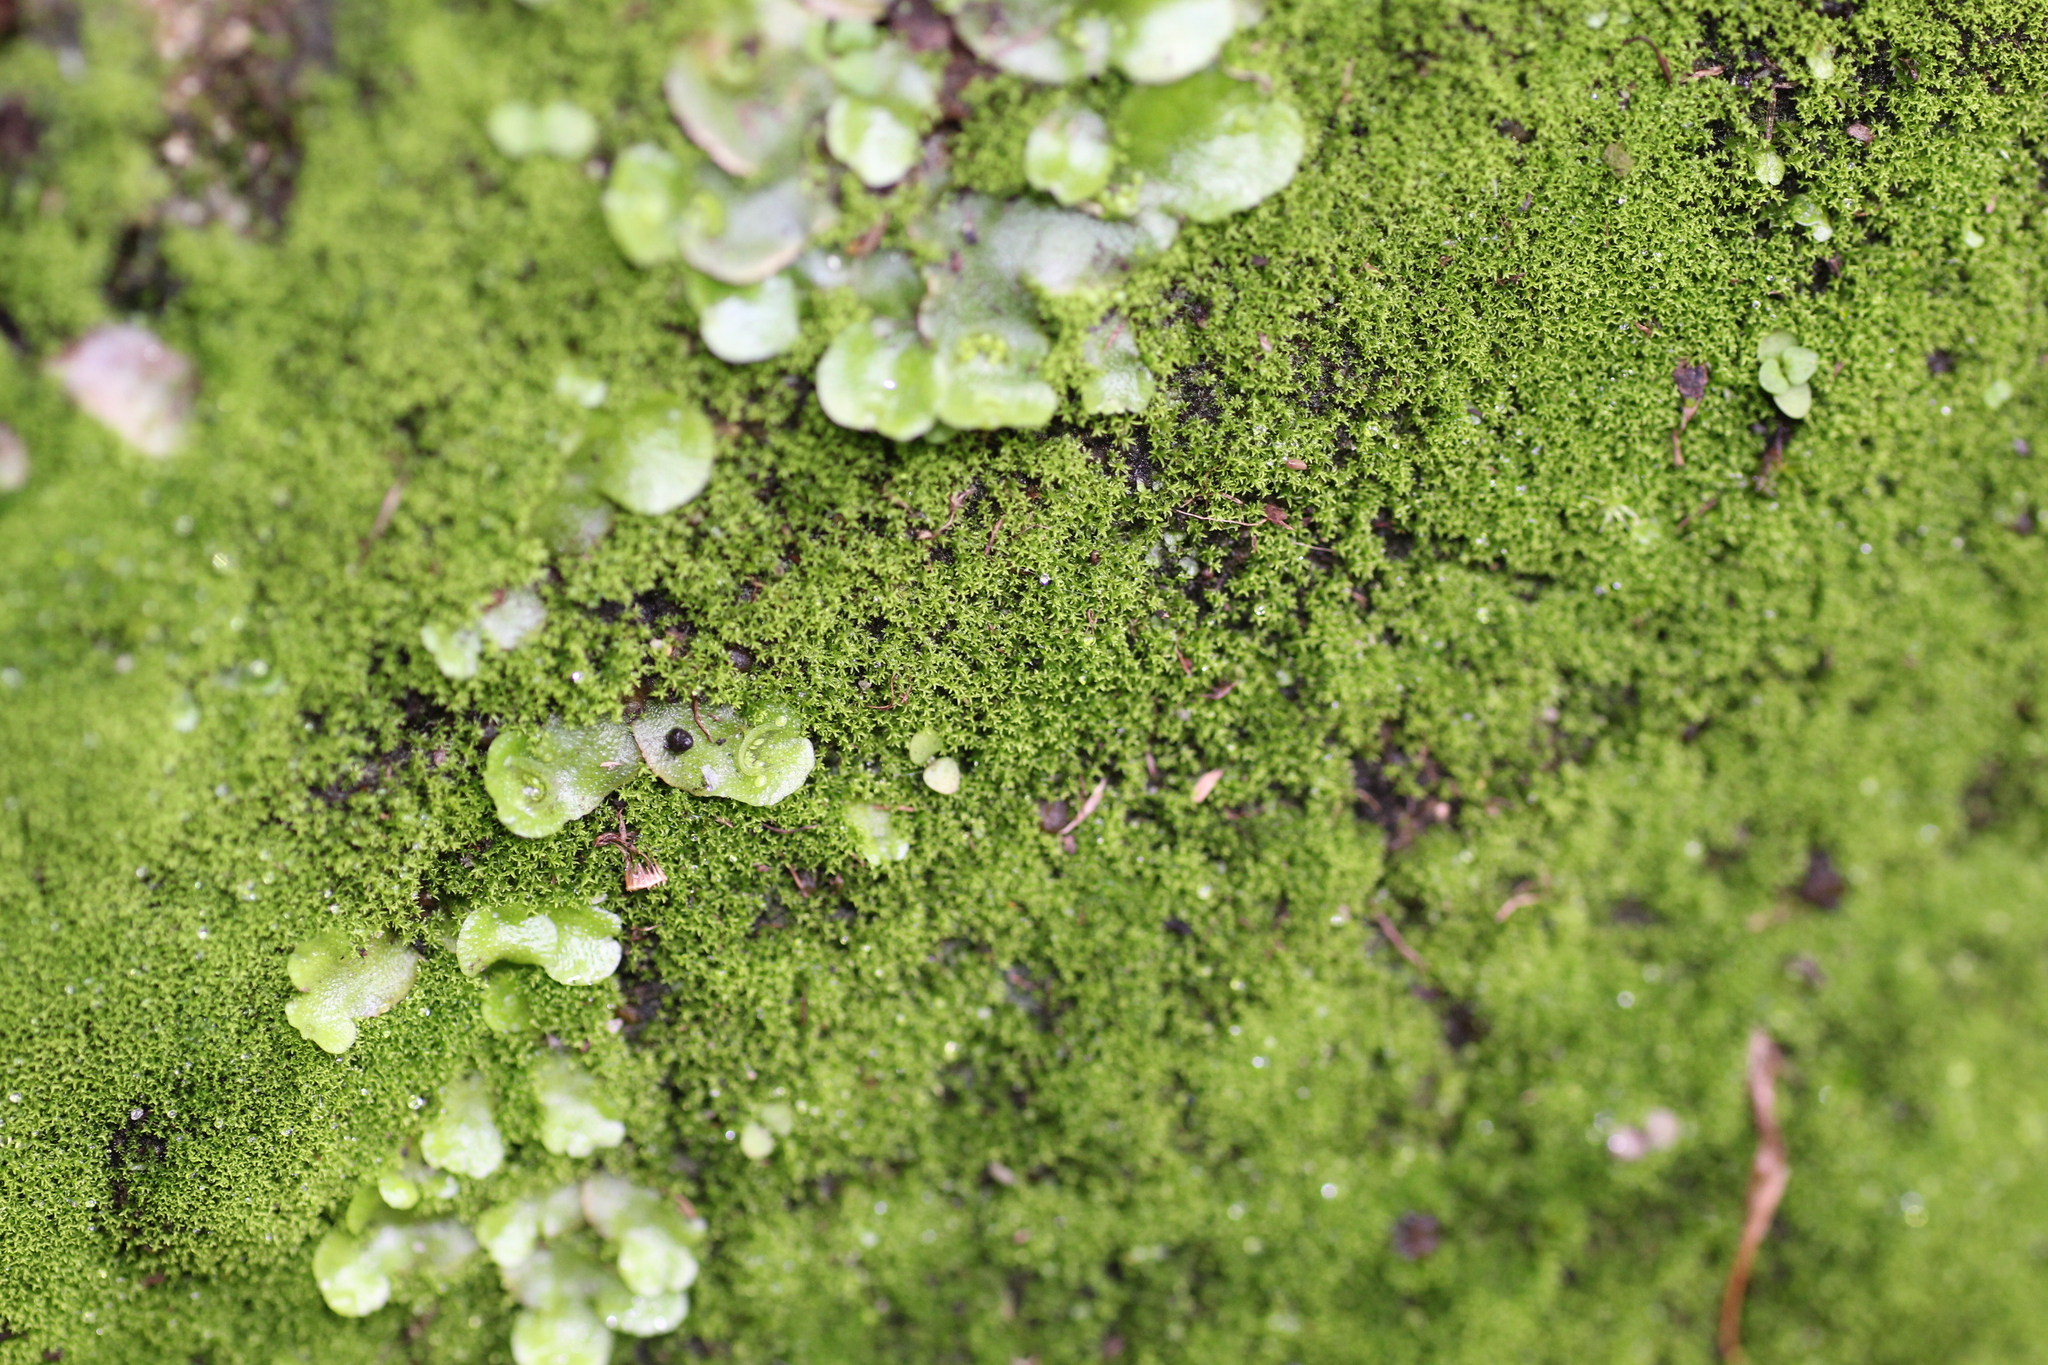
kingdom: Plantae
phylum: Marchantiophyta
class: Marchantiopsida
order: Lunulariales
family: Lunulariaceae
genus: Lunularia
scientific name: Lunularia cruciata
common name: Crescent-cup liverwort
